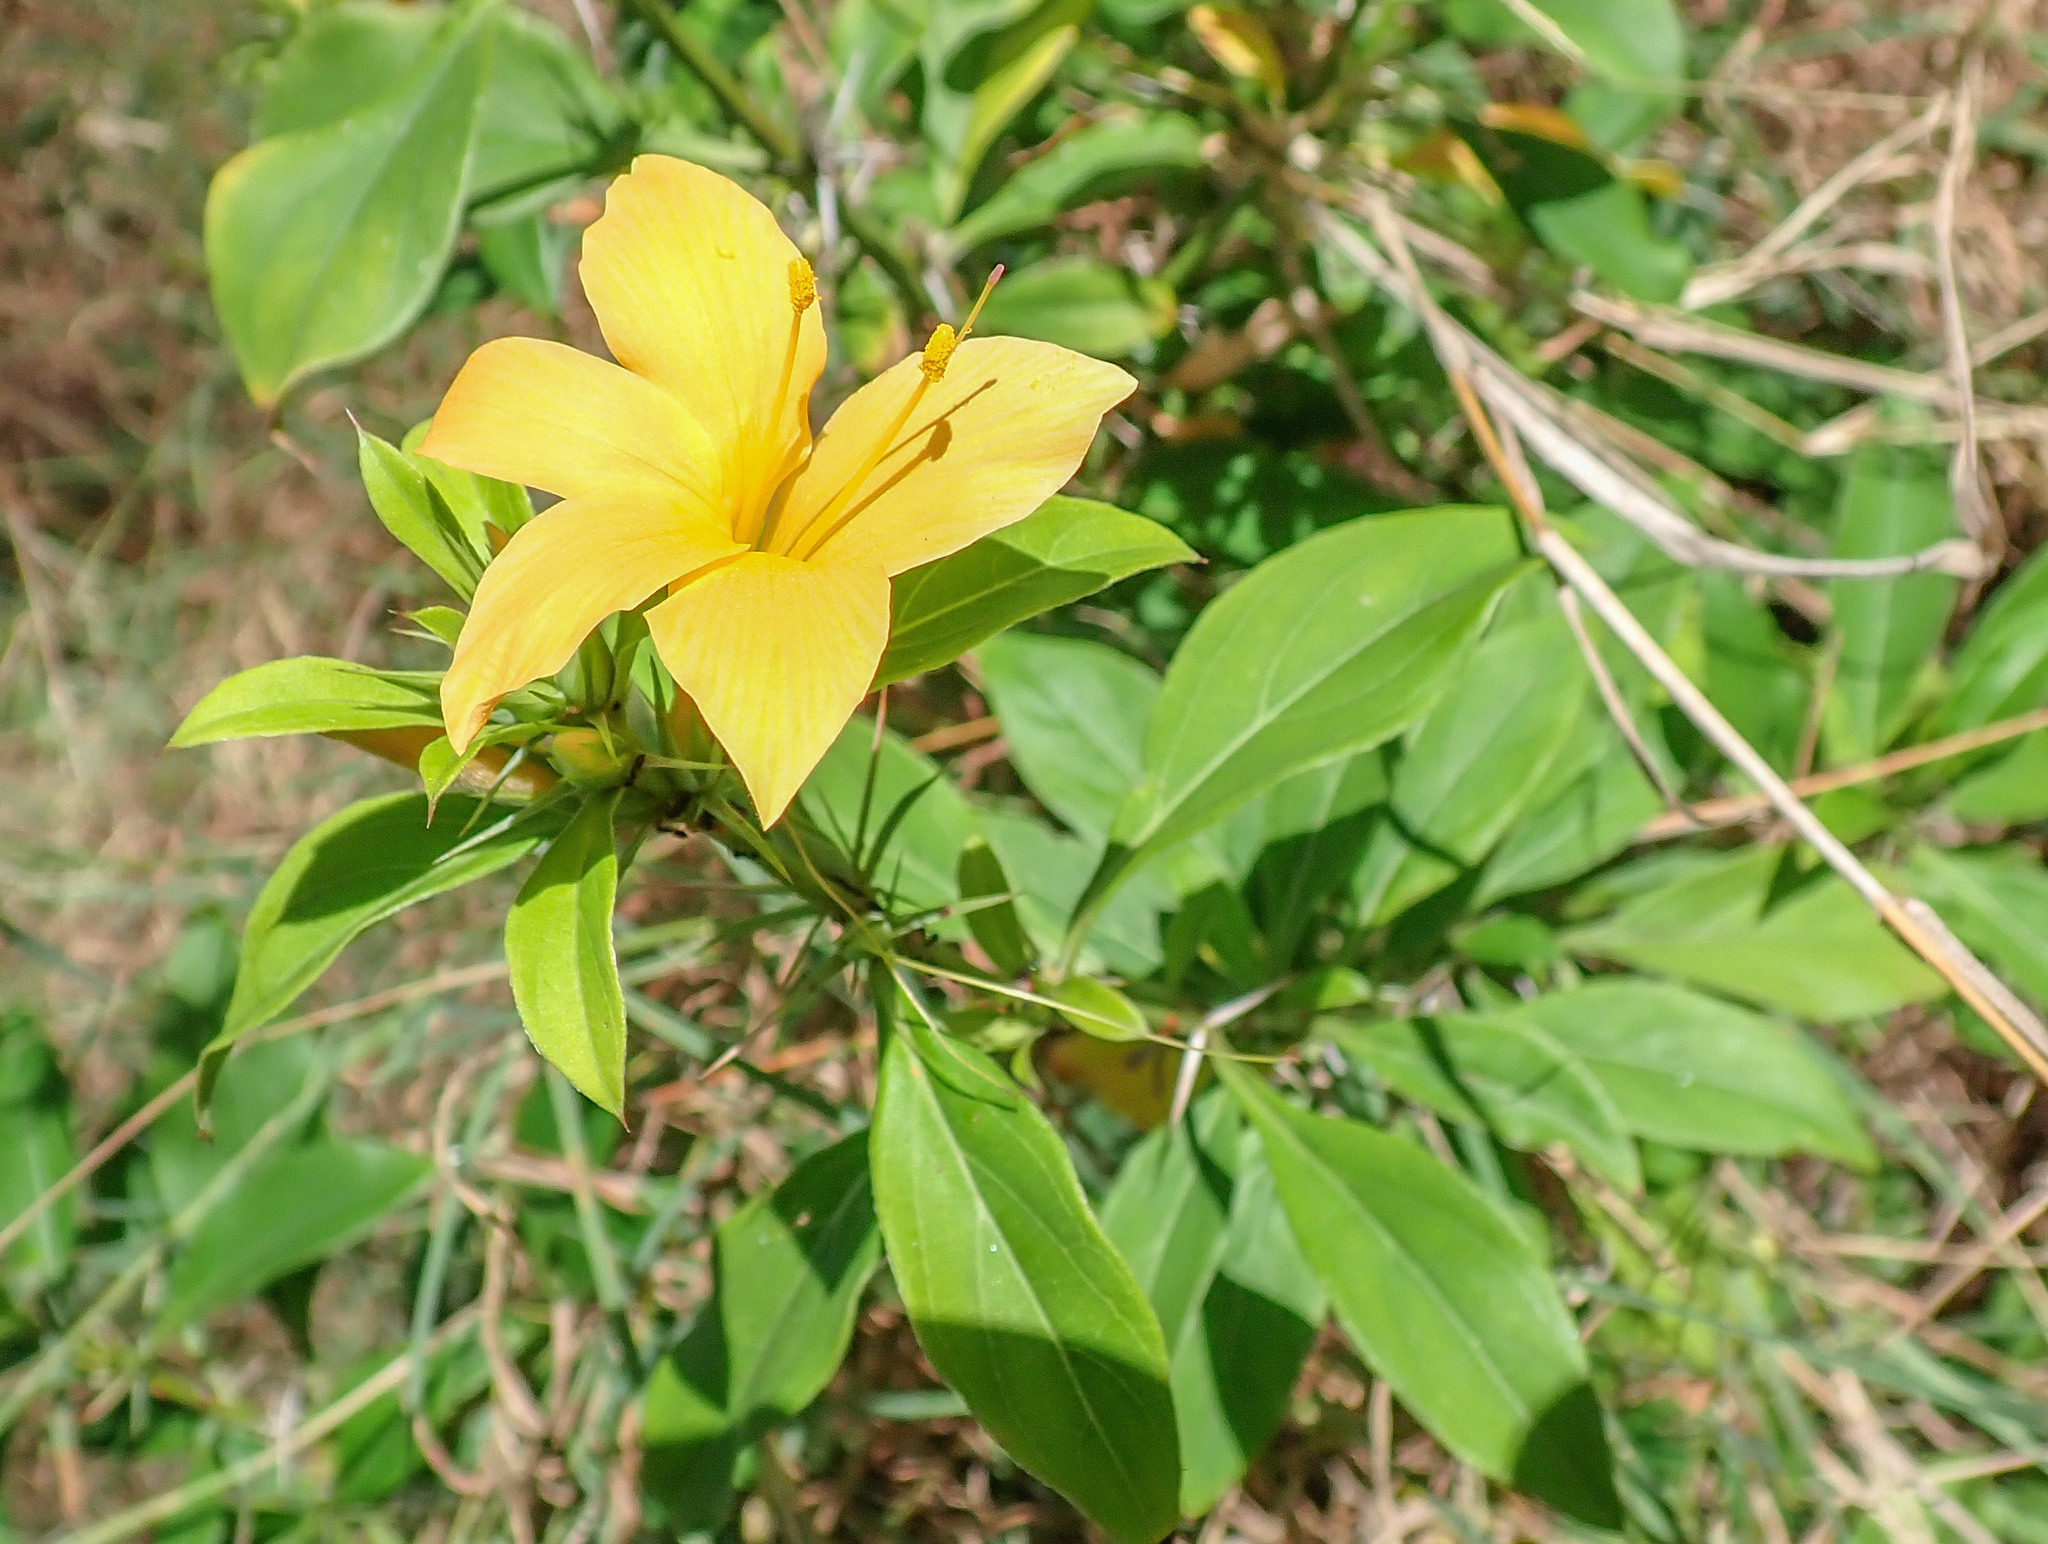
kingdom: Plantae
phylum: Tracheophyta
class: Magnoliopsida
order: Lamiales
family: Acanthaceae
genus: Barleria
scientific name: Barleria prionitis
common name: Barleria
